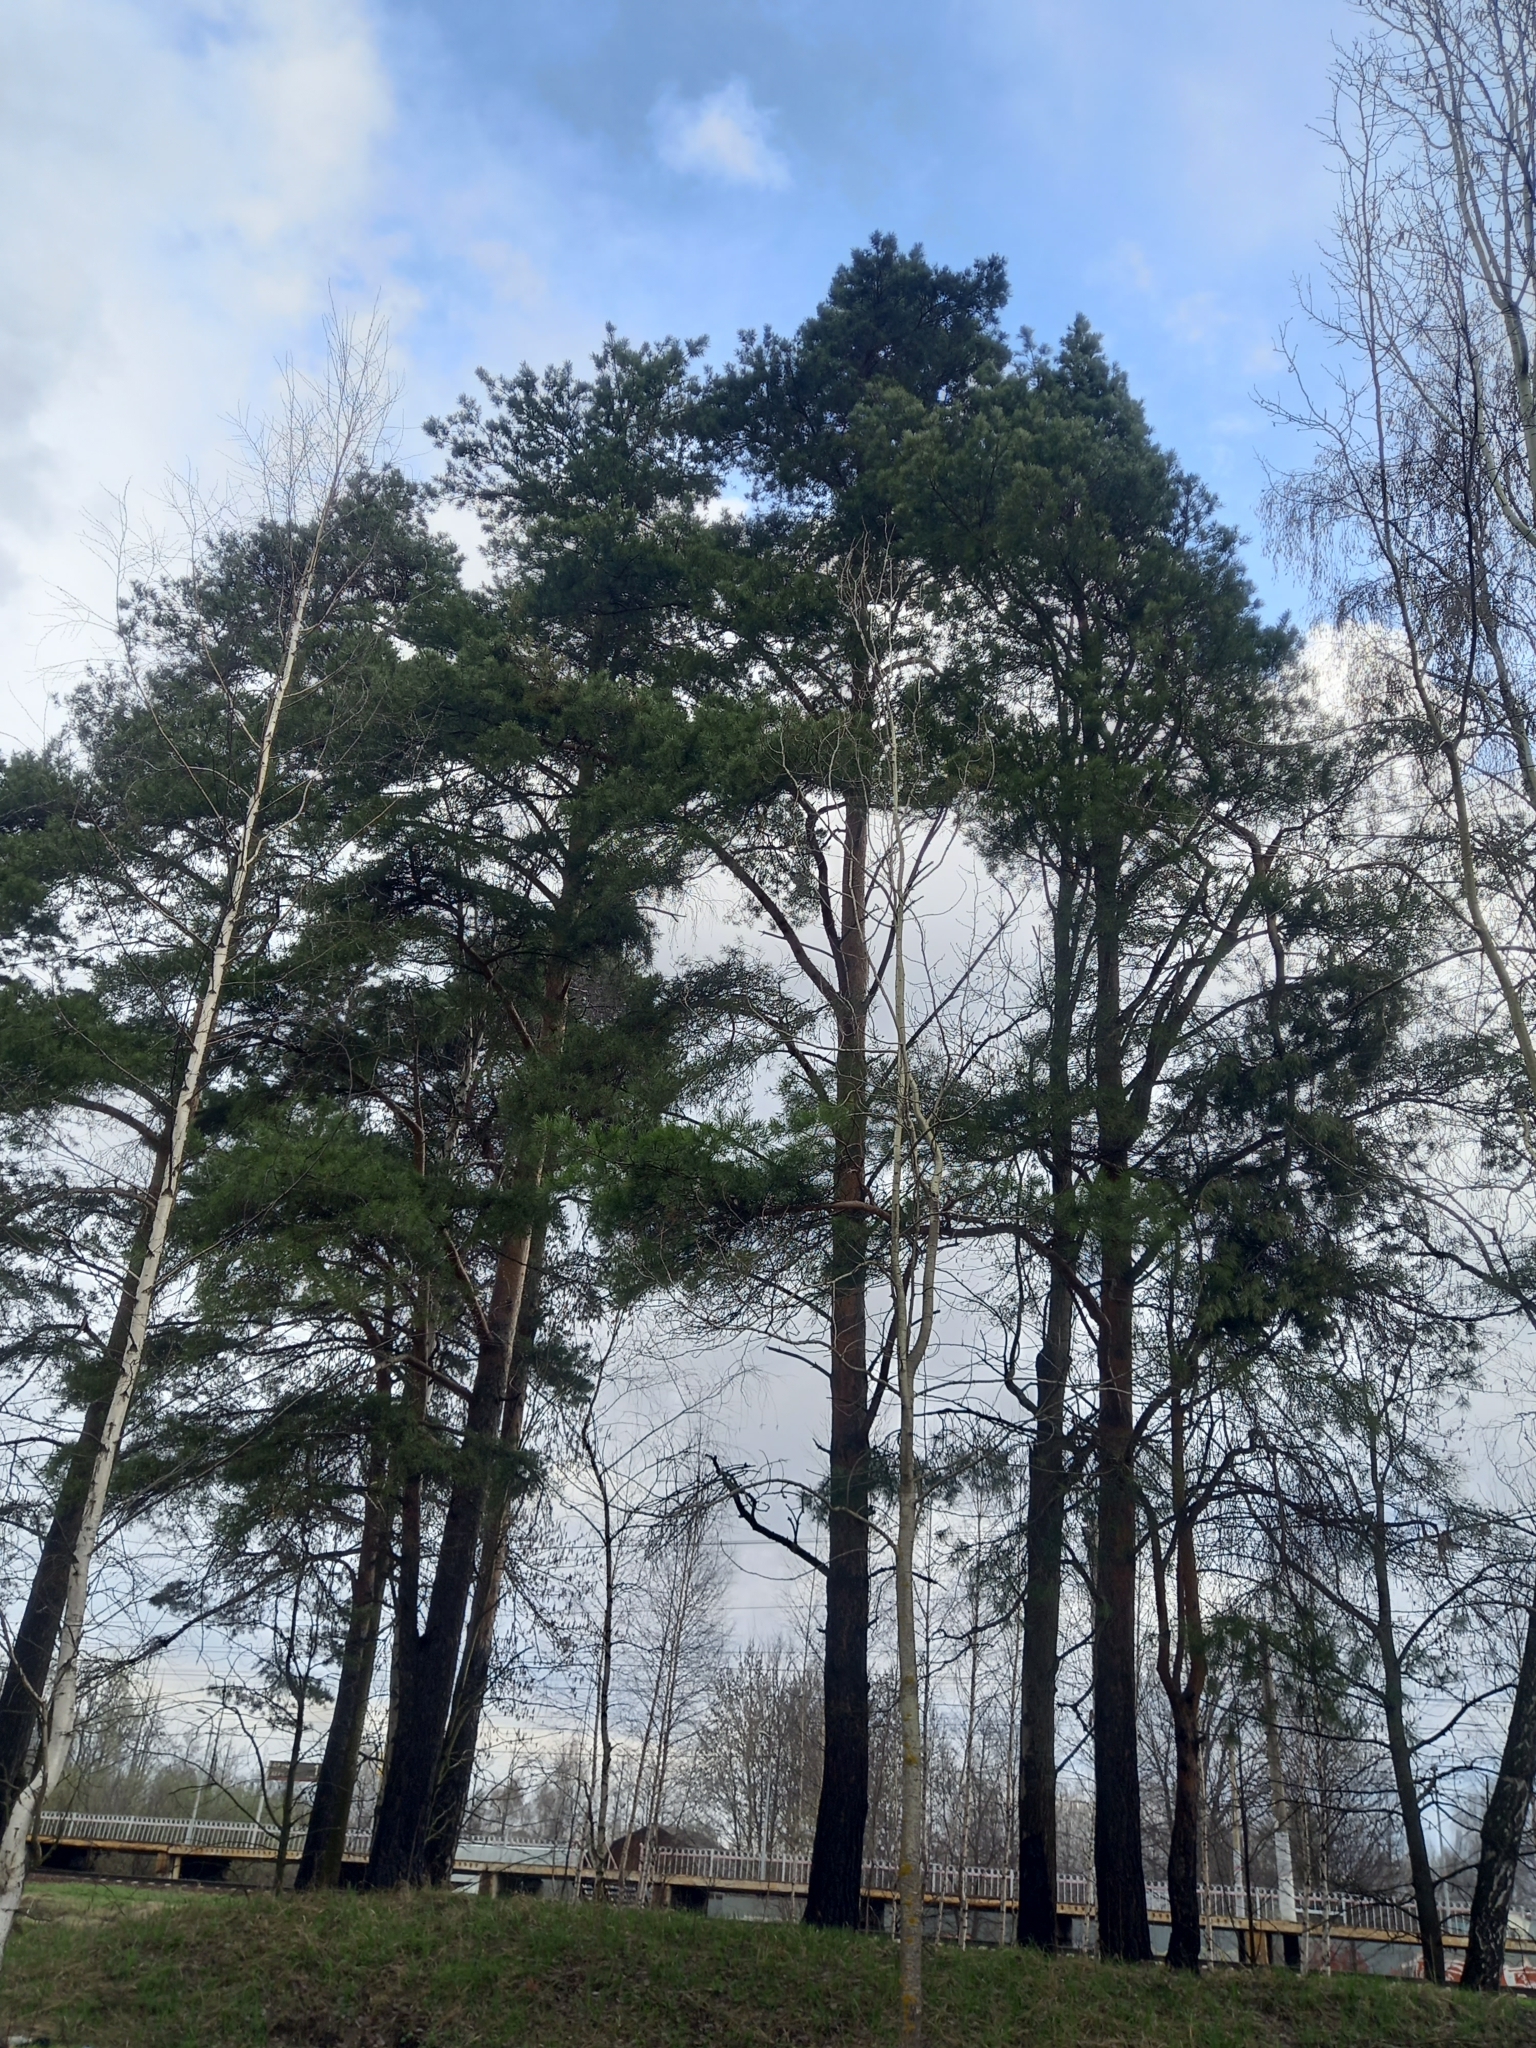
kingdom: Plantae
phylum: Tracheophyta
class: Pinopsida
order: Pinales
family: Pinaceae
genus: Pinus
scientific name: Pinus sylvestris
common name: Scots pine
